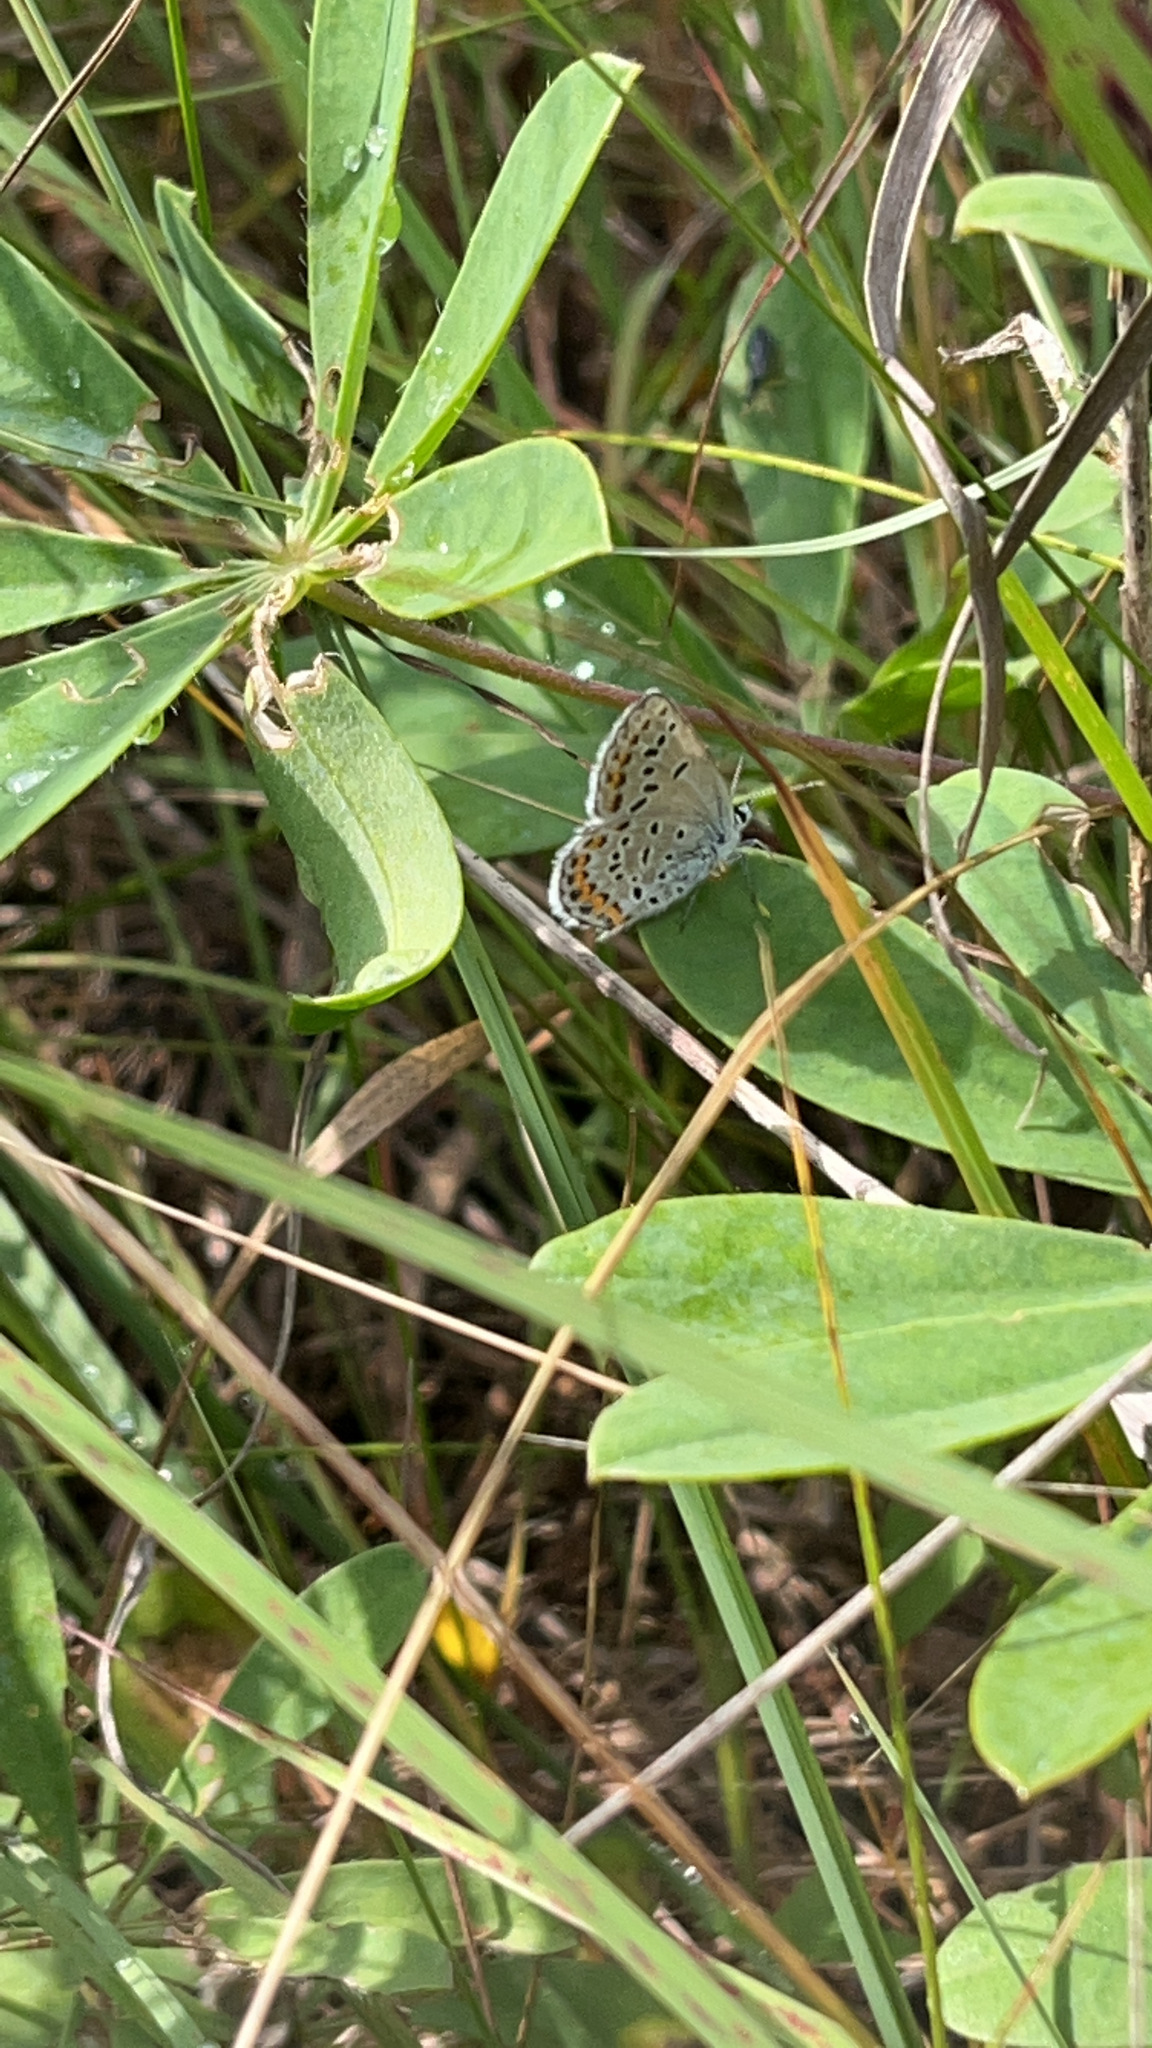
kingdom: Animalia
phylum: Arthropoda
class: Insecta
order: Lepidoptera
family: Lycaenidae
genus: Plebejus
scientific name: Plebejus samuelis
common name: Karner blue
